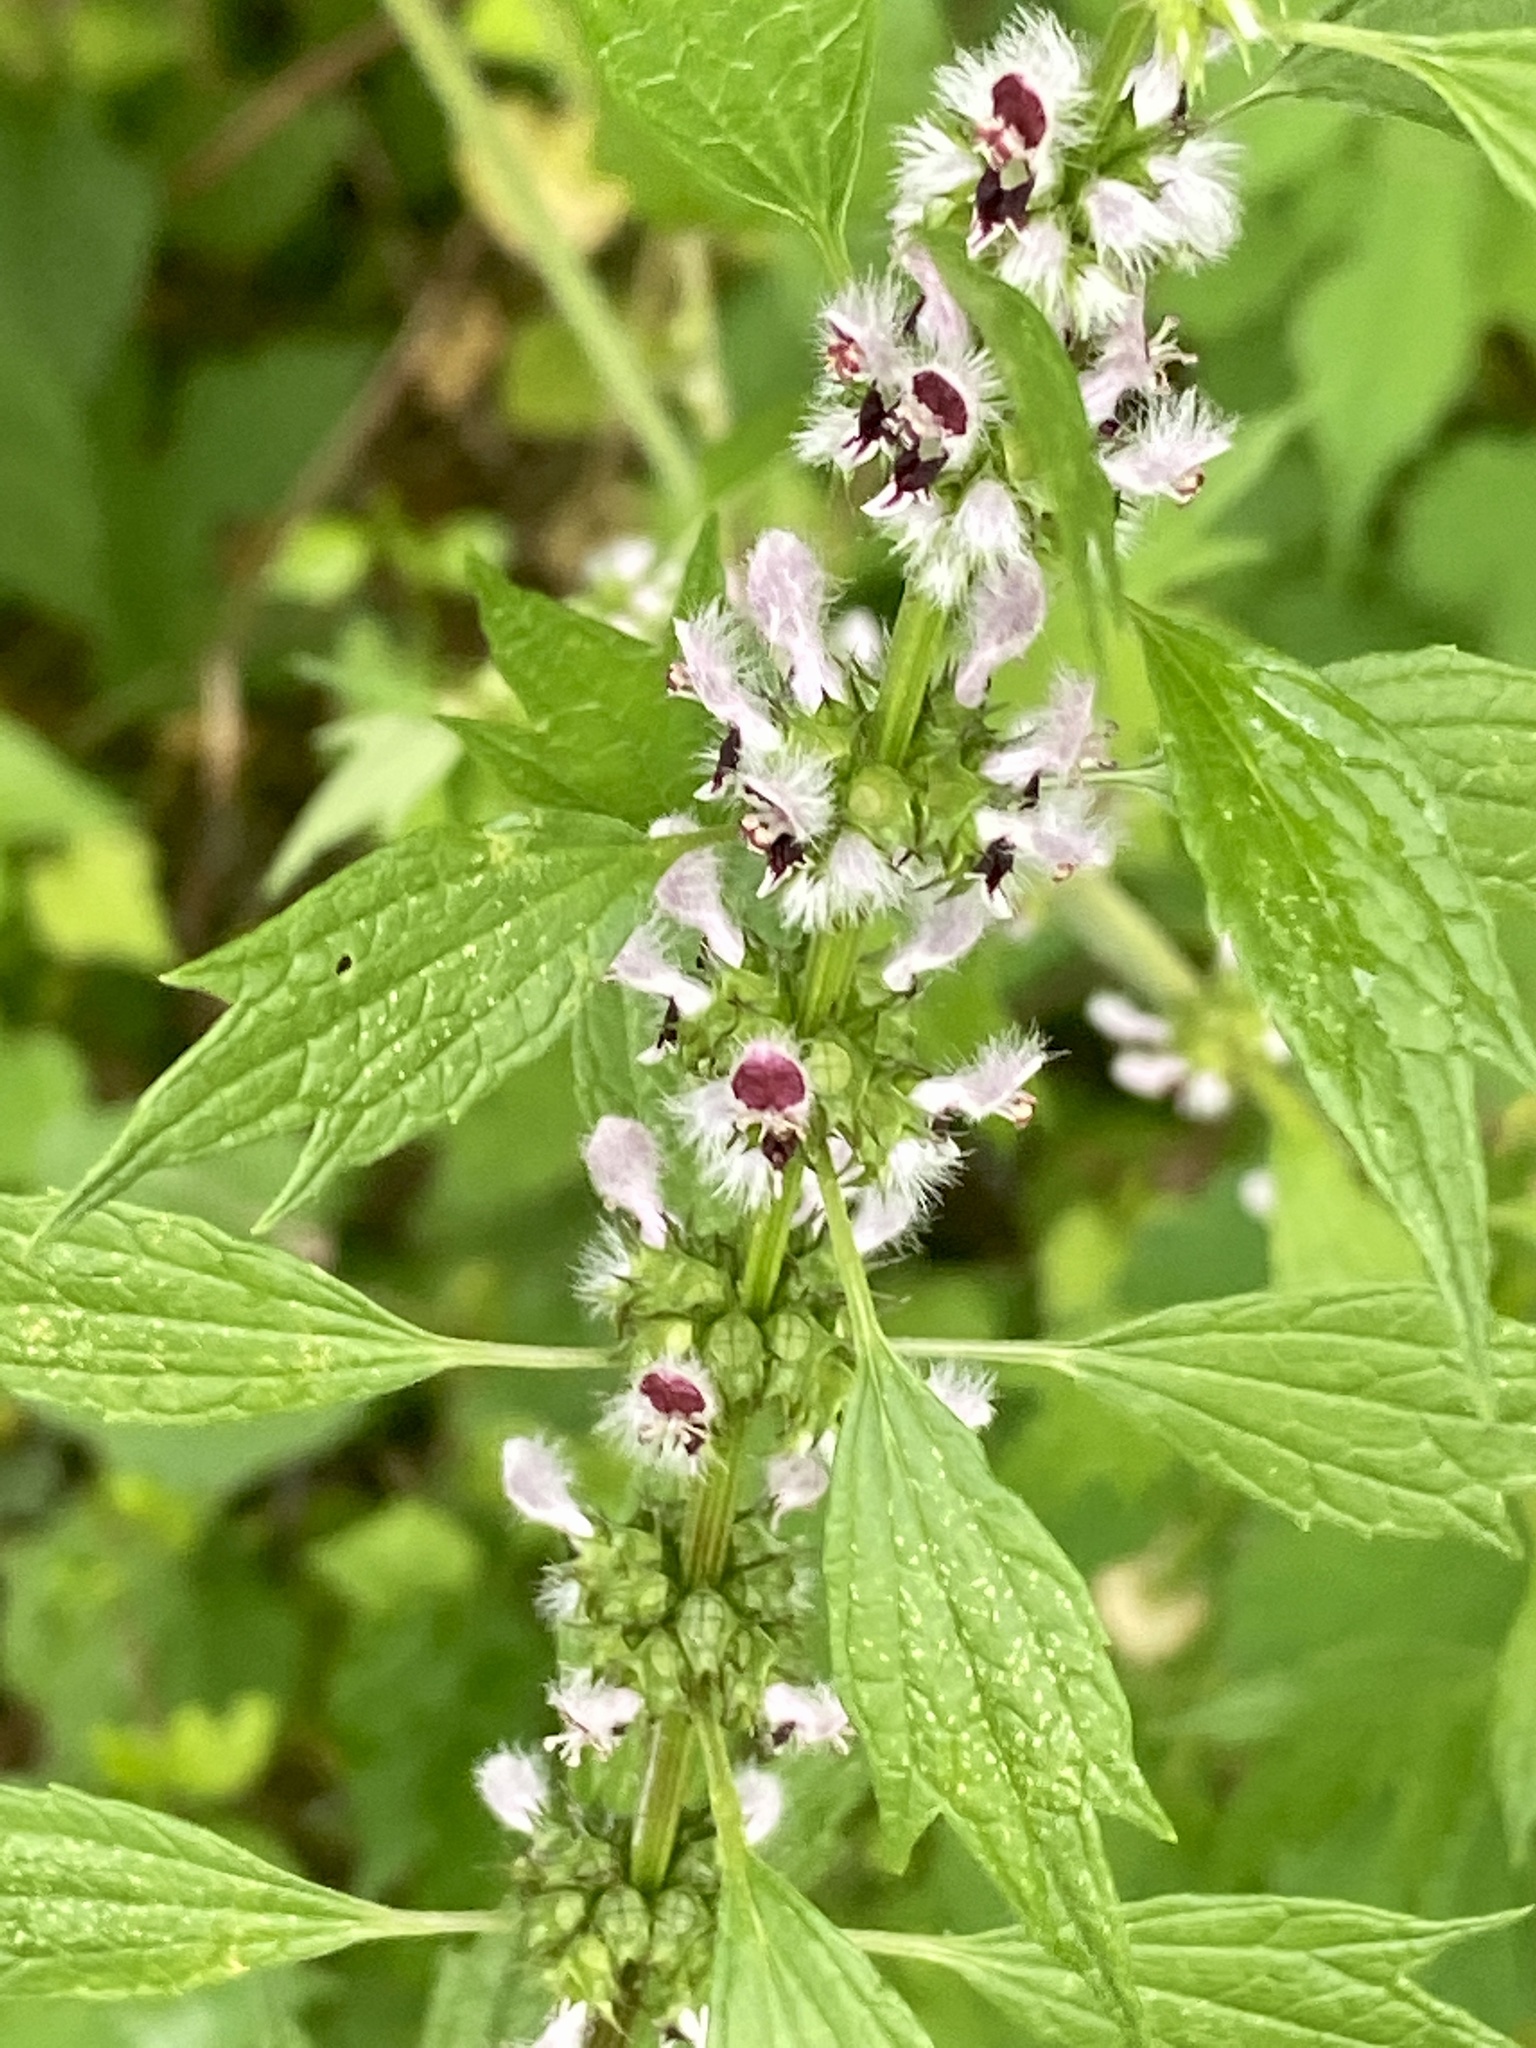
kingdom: Plantae
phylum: Tracheophyta
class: Magnoliopsida
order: Lamiales
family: Lamiaceae
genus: Leonurus
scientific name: Leonurus cardiaca
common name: Motherwort
